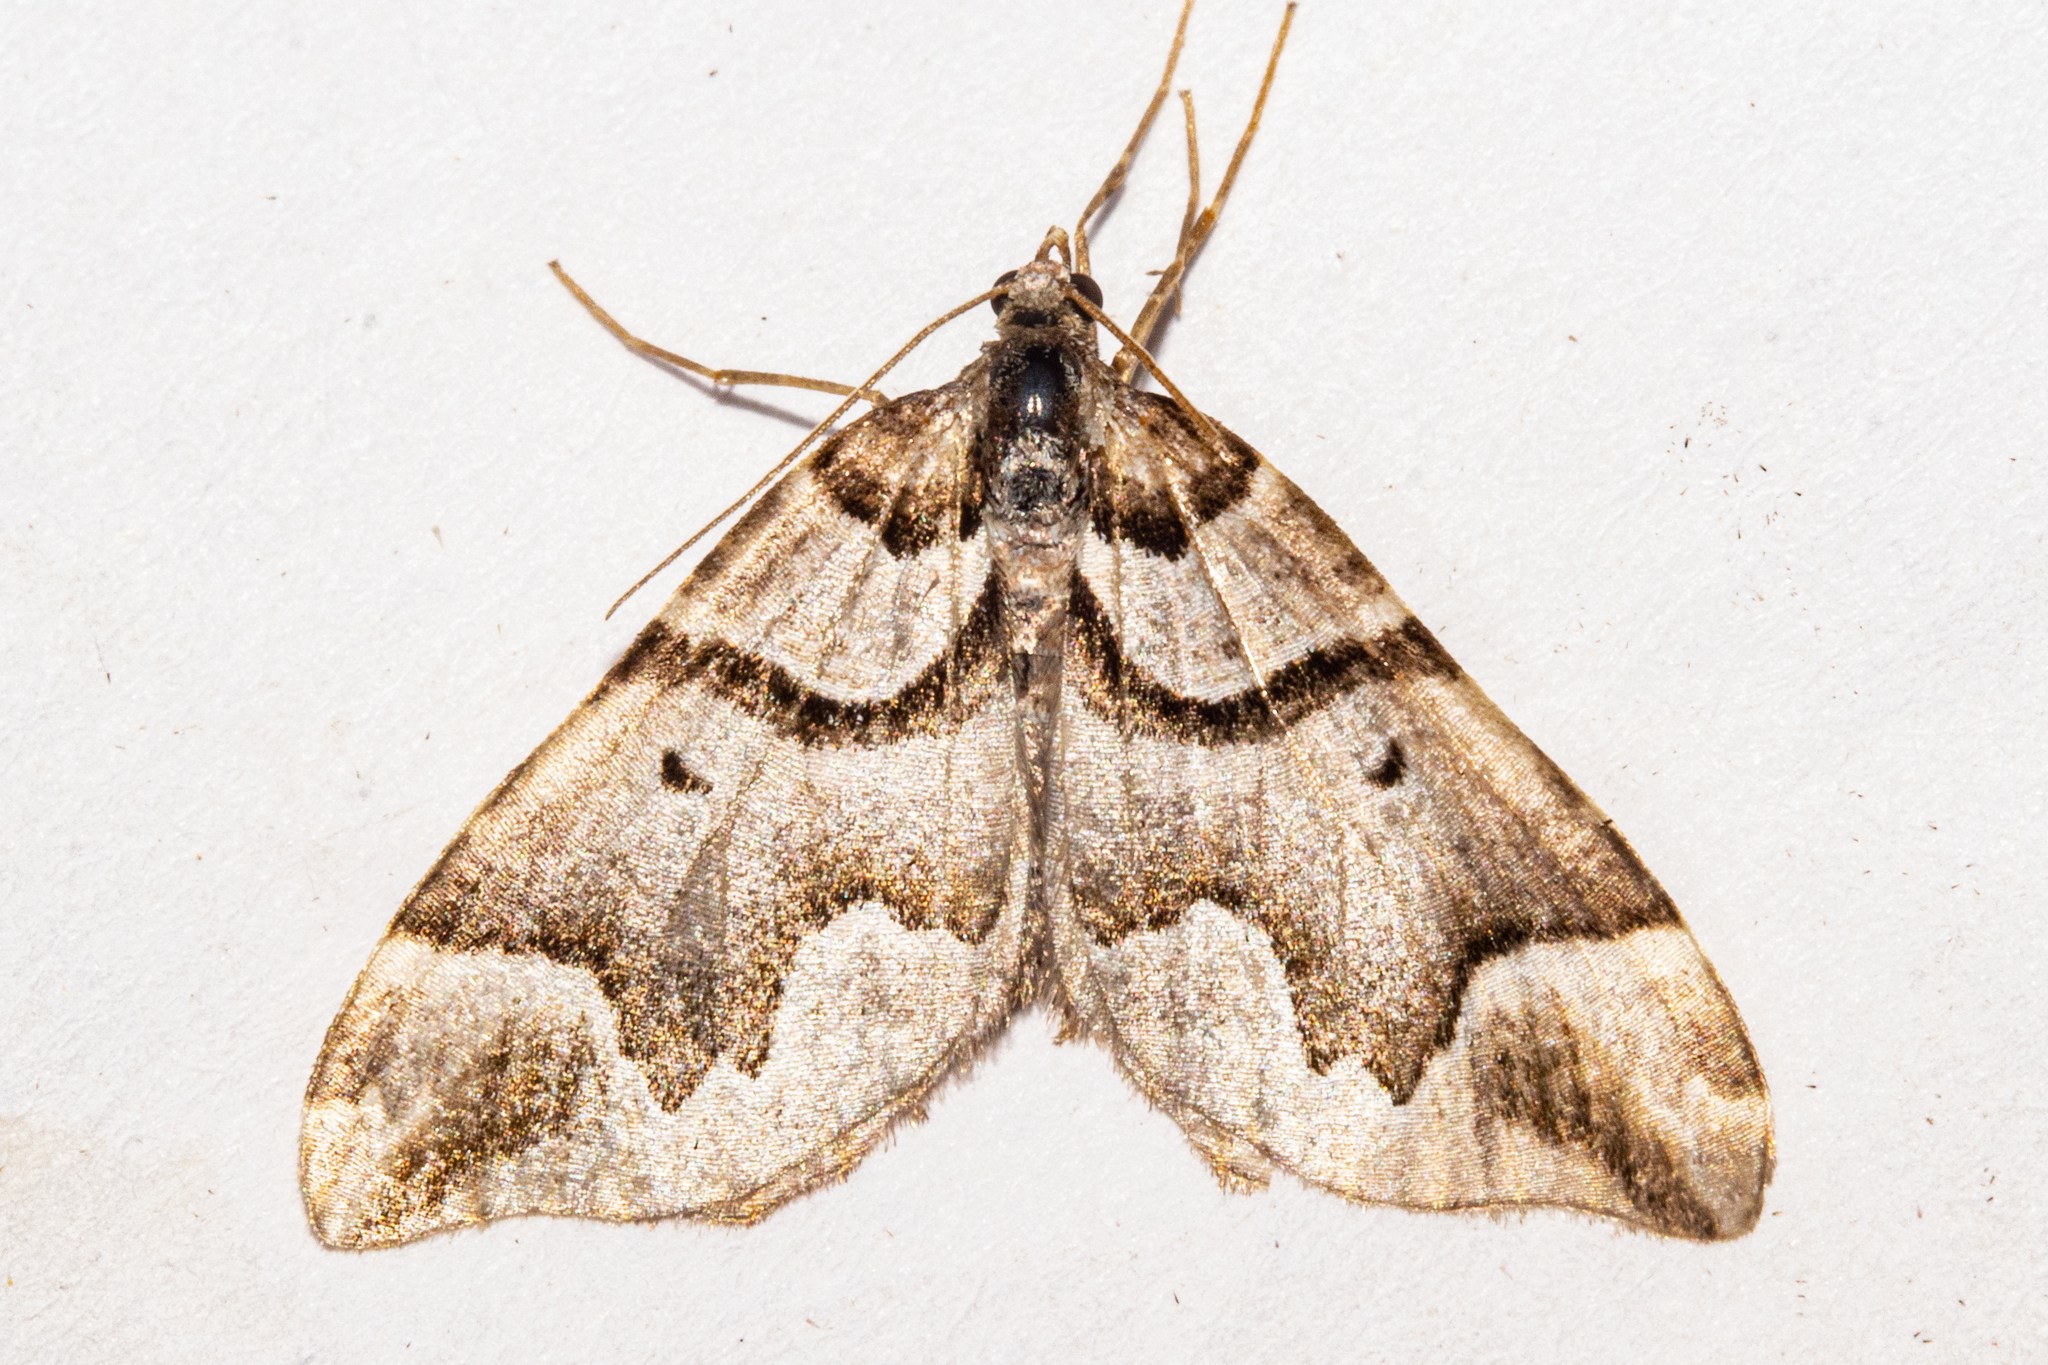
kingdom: Animalia
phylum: Arthropoda
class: Insecta
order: Lepidoptera
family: Geometridae
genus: Helastia
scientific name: Helastia expolita
